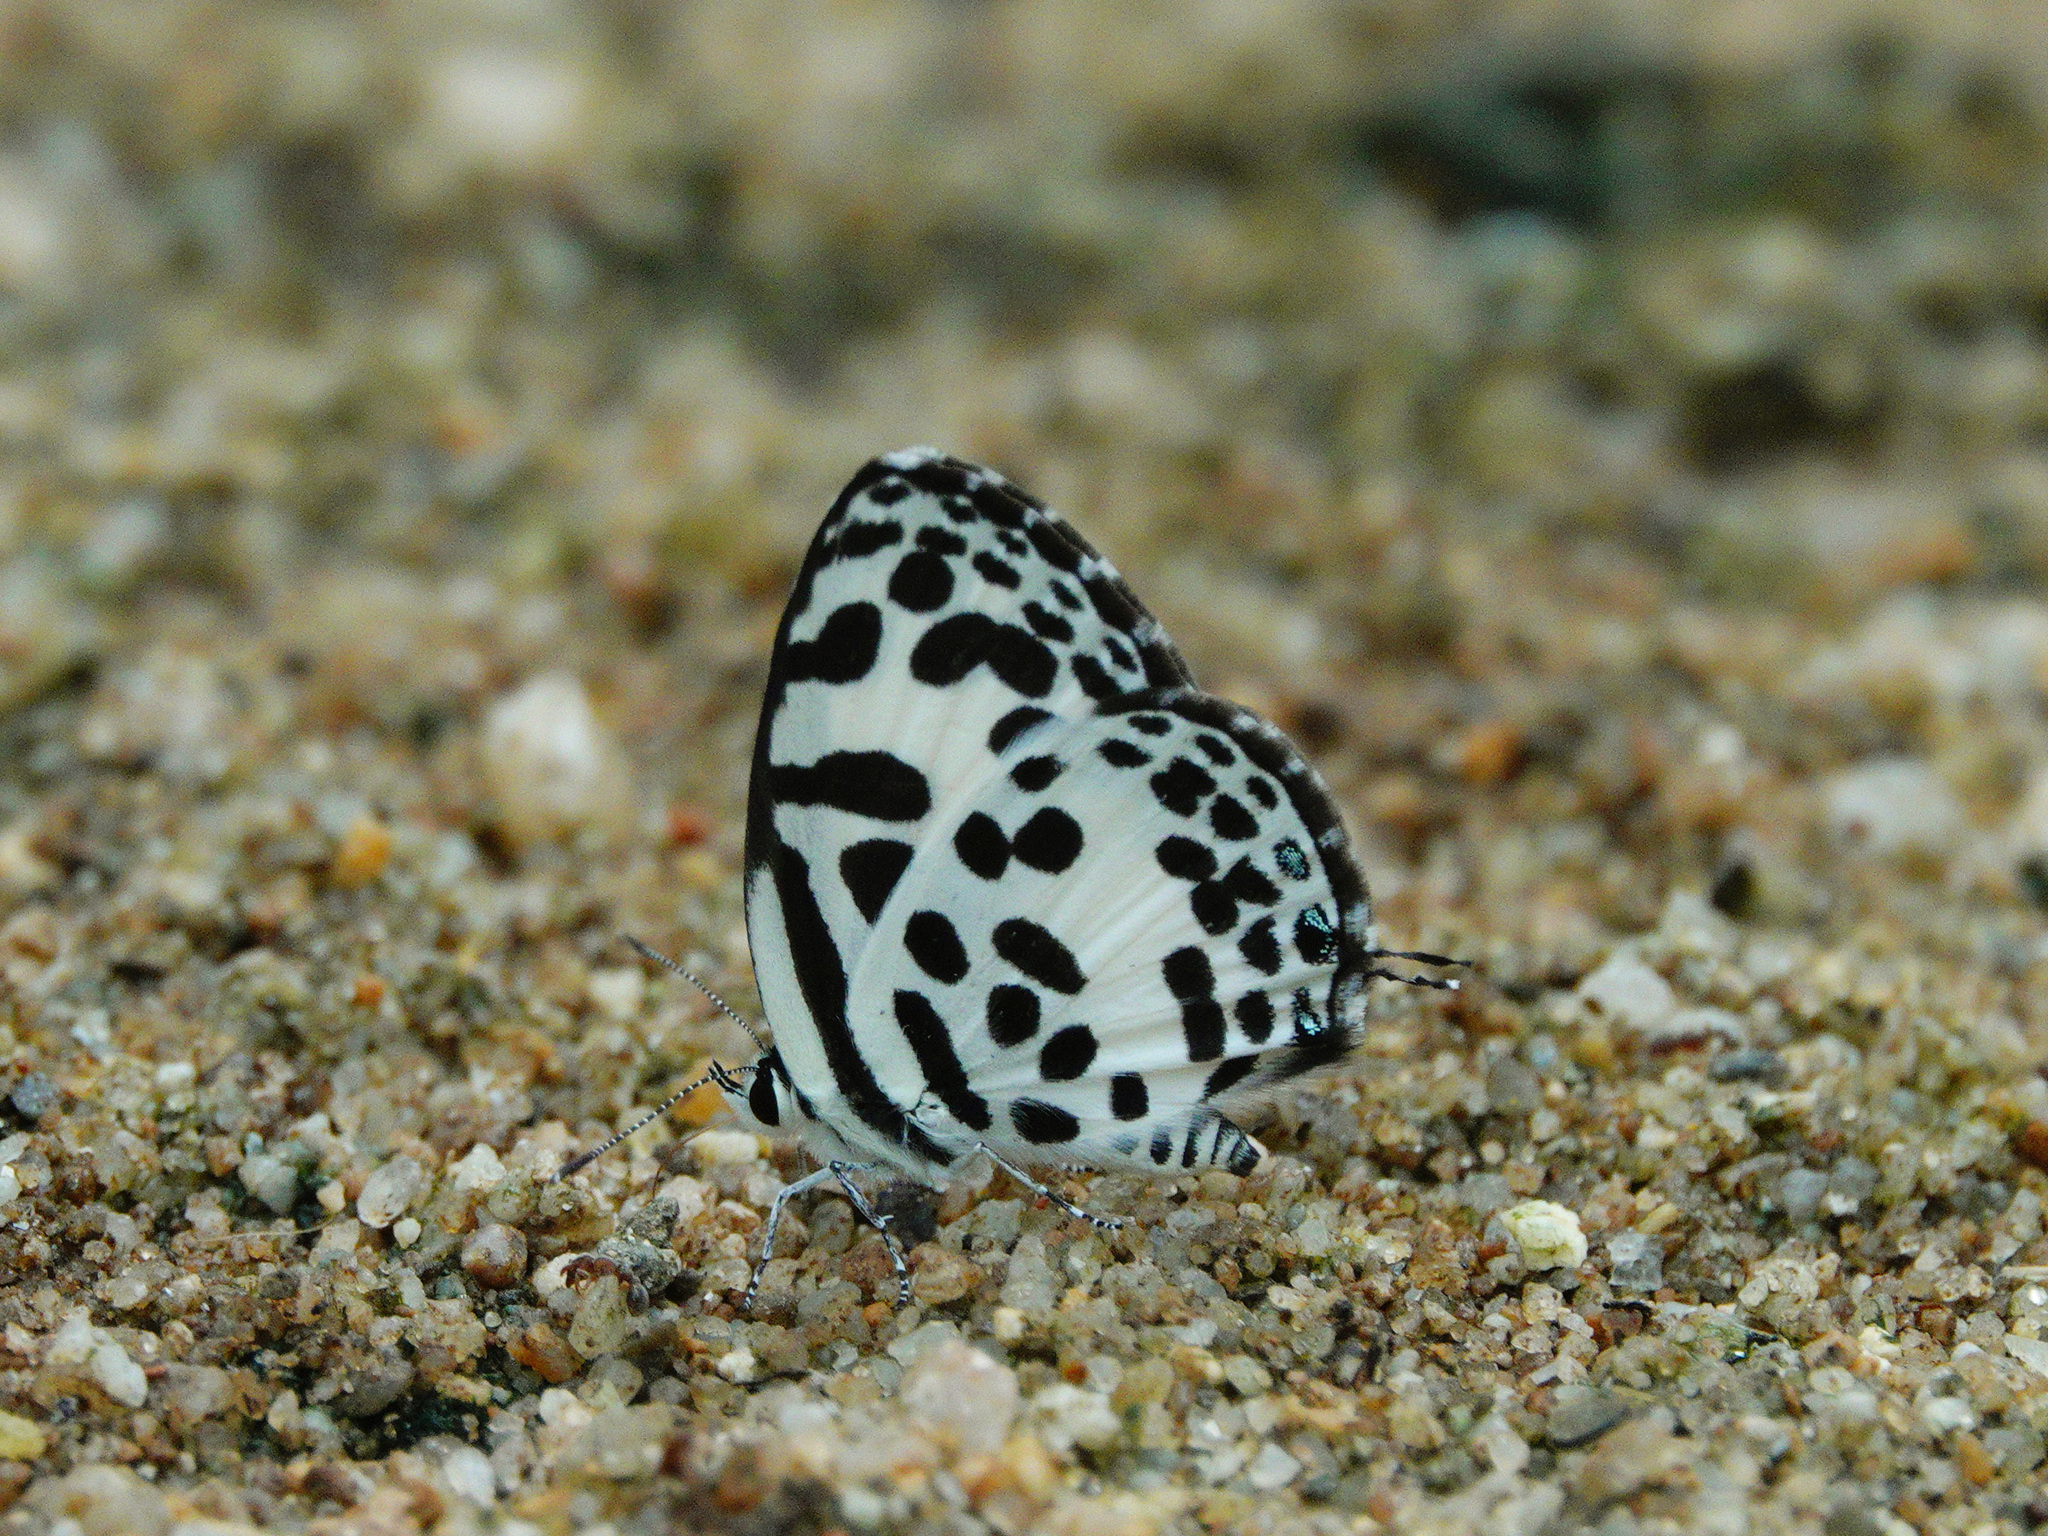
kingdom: Animalia
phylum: Arthropoda
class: Insecta
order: Lepidoptera
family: Lycaenidae
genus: Castalius
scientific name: Castalius rosimon
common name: Common pierrot
